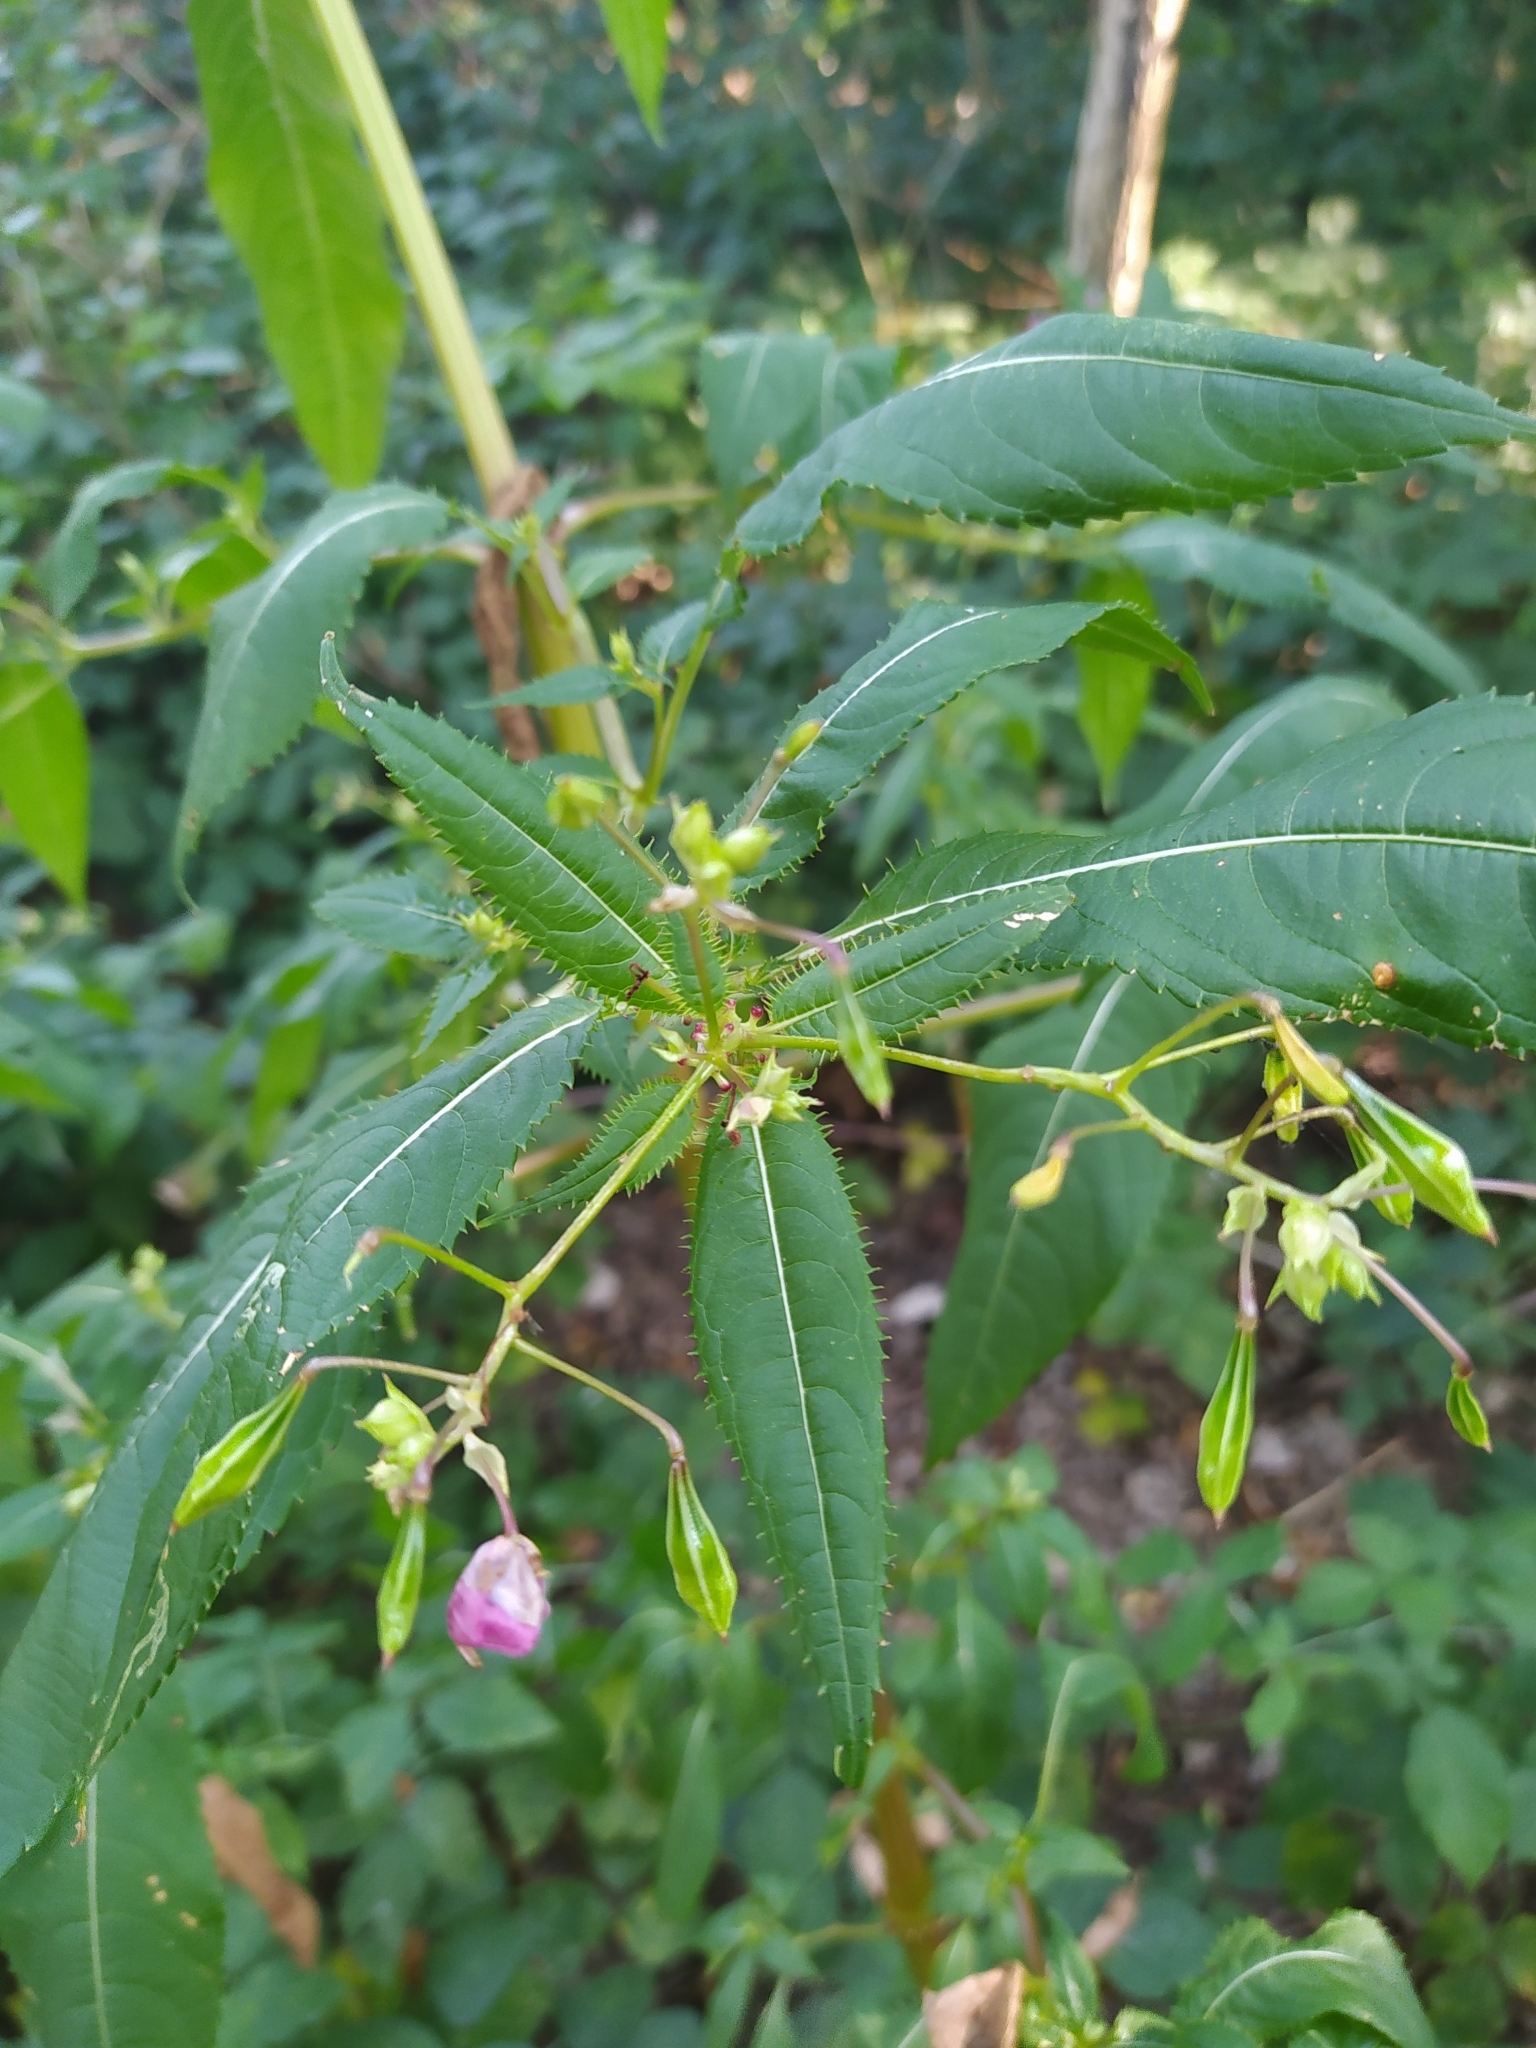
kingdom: Plantae
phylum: Tracheophyta
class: Magnoliopsida
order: Ericales
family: Balsaminaceae
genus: Impatiens
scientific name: Impatiens glandulifera
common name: Himalayan balsam
